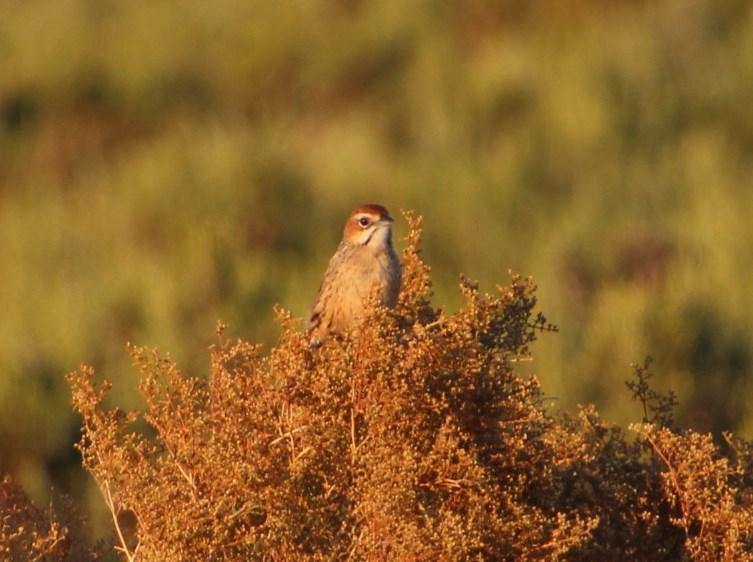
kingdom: Animalia
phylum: Chordata
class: Aves
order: Passeriformes
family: Macrosphenidae
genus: Sphenoeacus
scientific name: Sphenoeacus afer
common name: Cape grassbird
